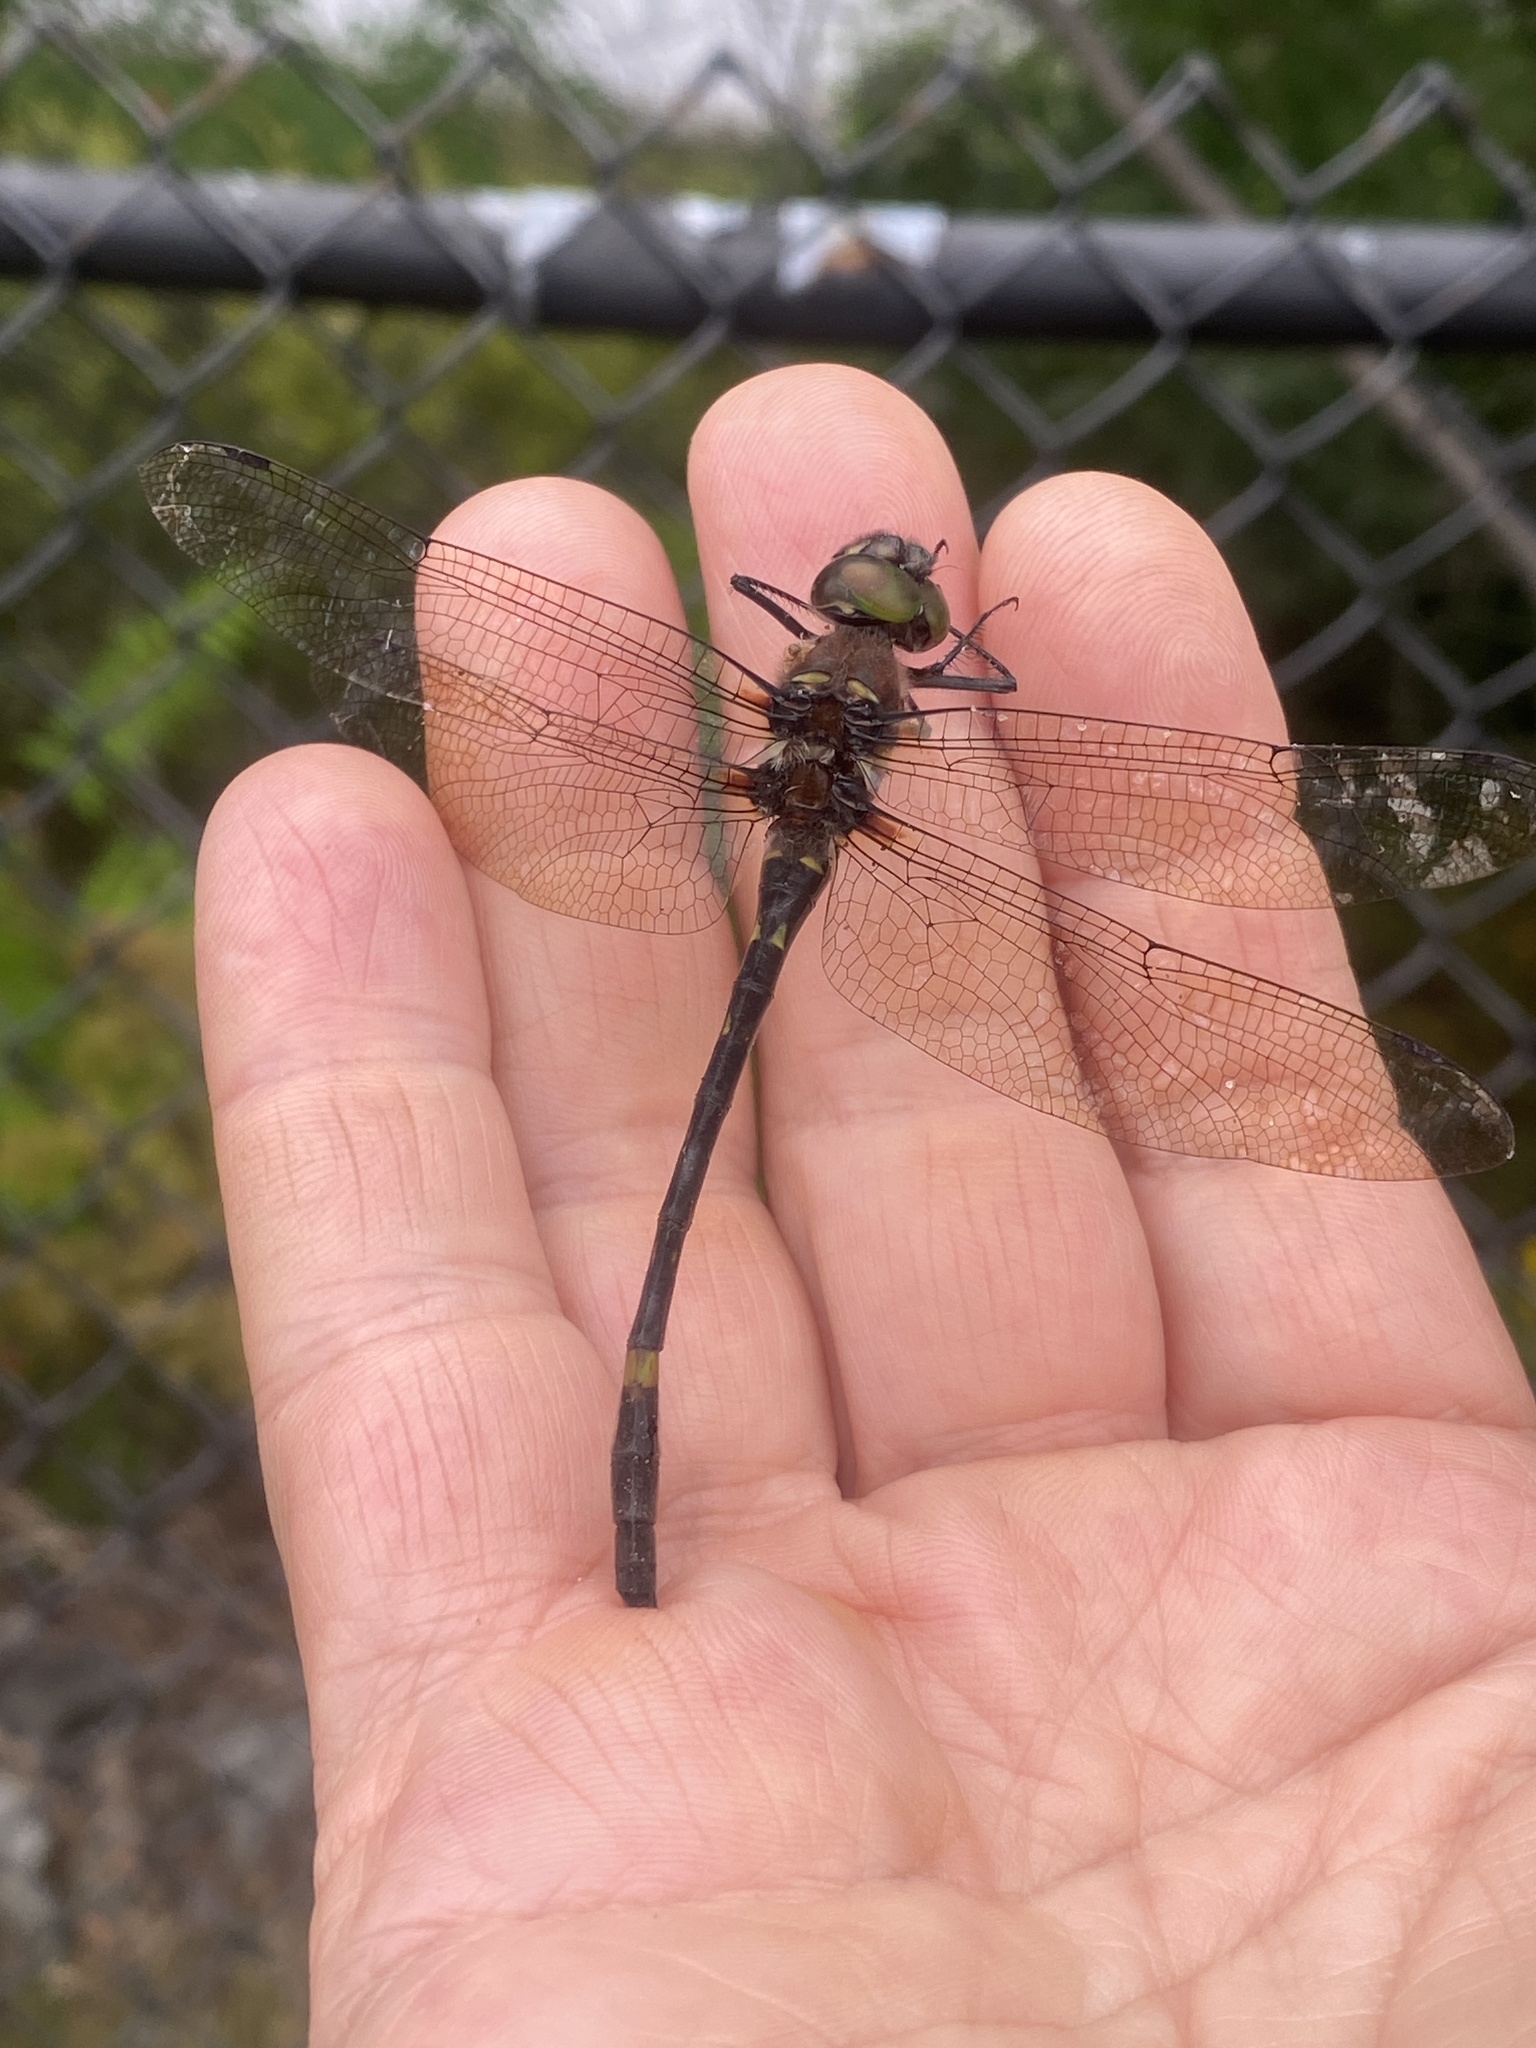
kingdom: Animalia
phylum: Arthropoda
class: Insecta
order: Odonata
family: Macromiidae
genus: Macromia
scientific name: Macromia illinoiensis
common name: Swift river cruiser
